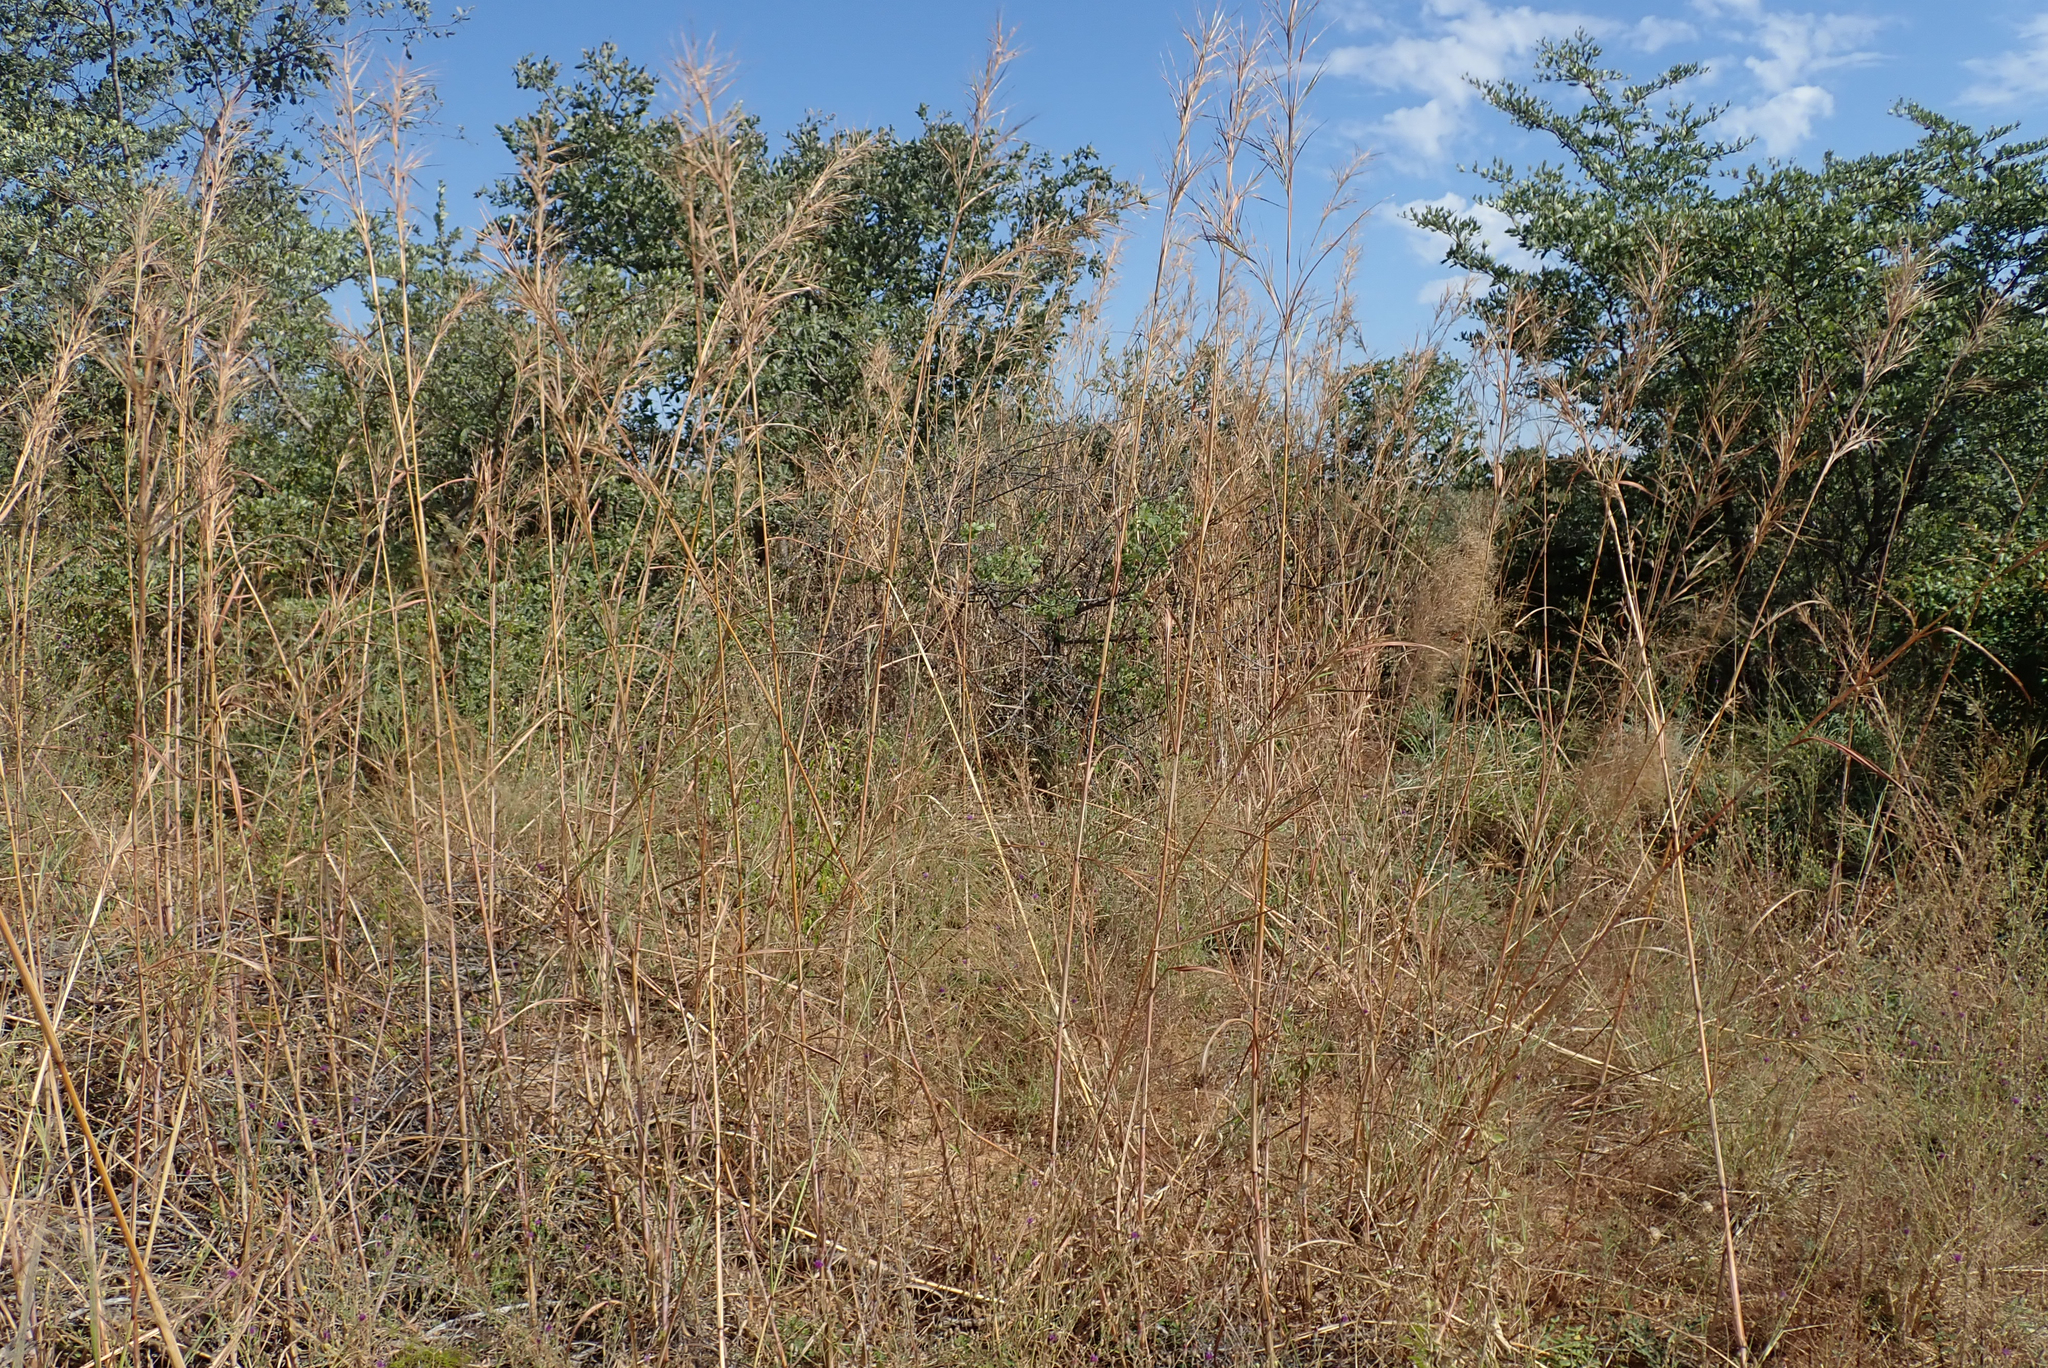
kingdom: Plantae
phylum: Tracheophyta
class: Liliopsida
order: Poales
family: Poaceae
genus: Hyperthelia
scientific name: Hyperthelia dissoluta
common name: Yellow thatching grass
